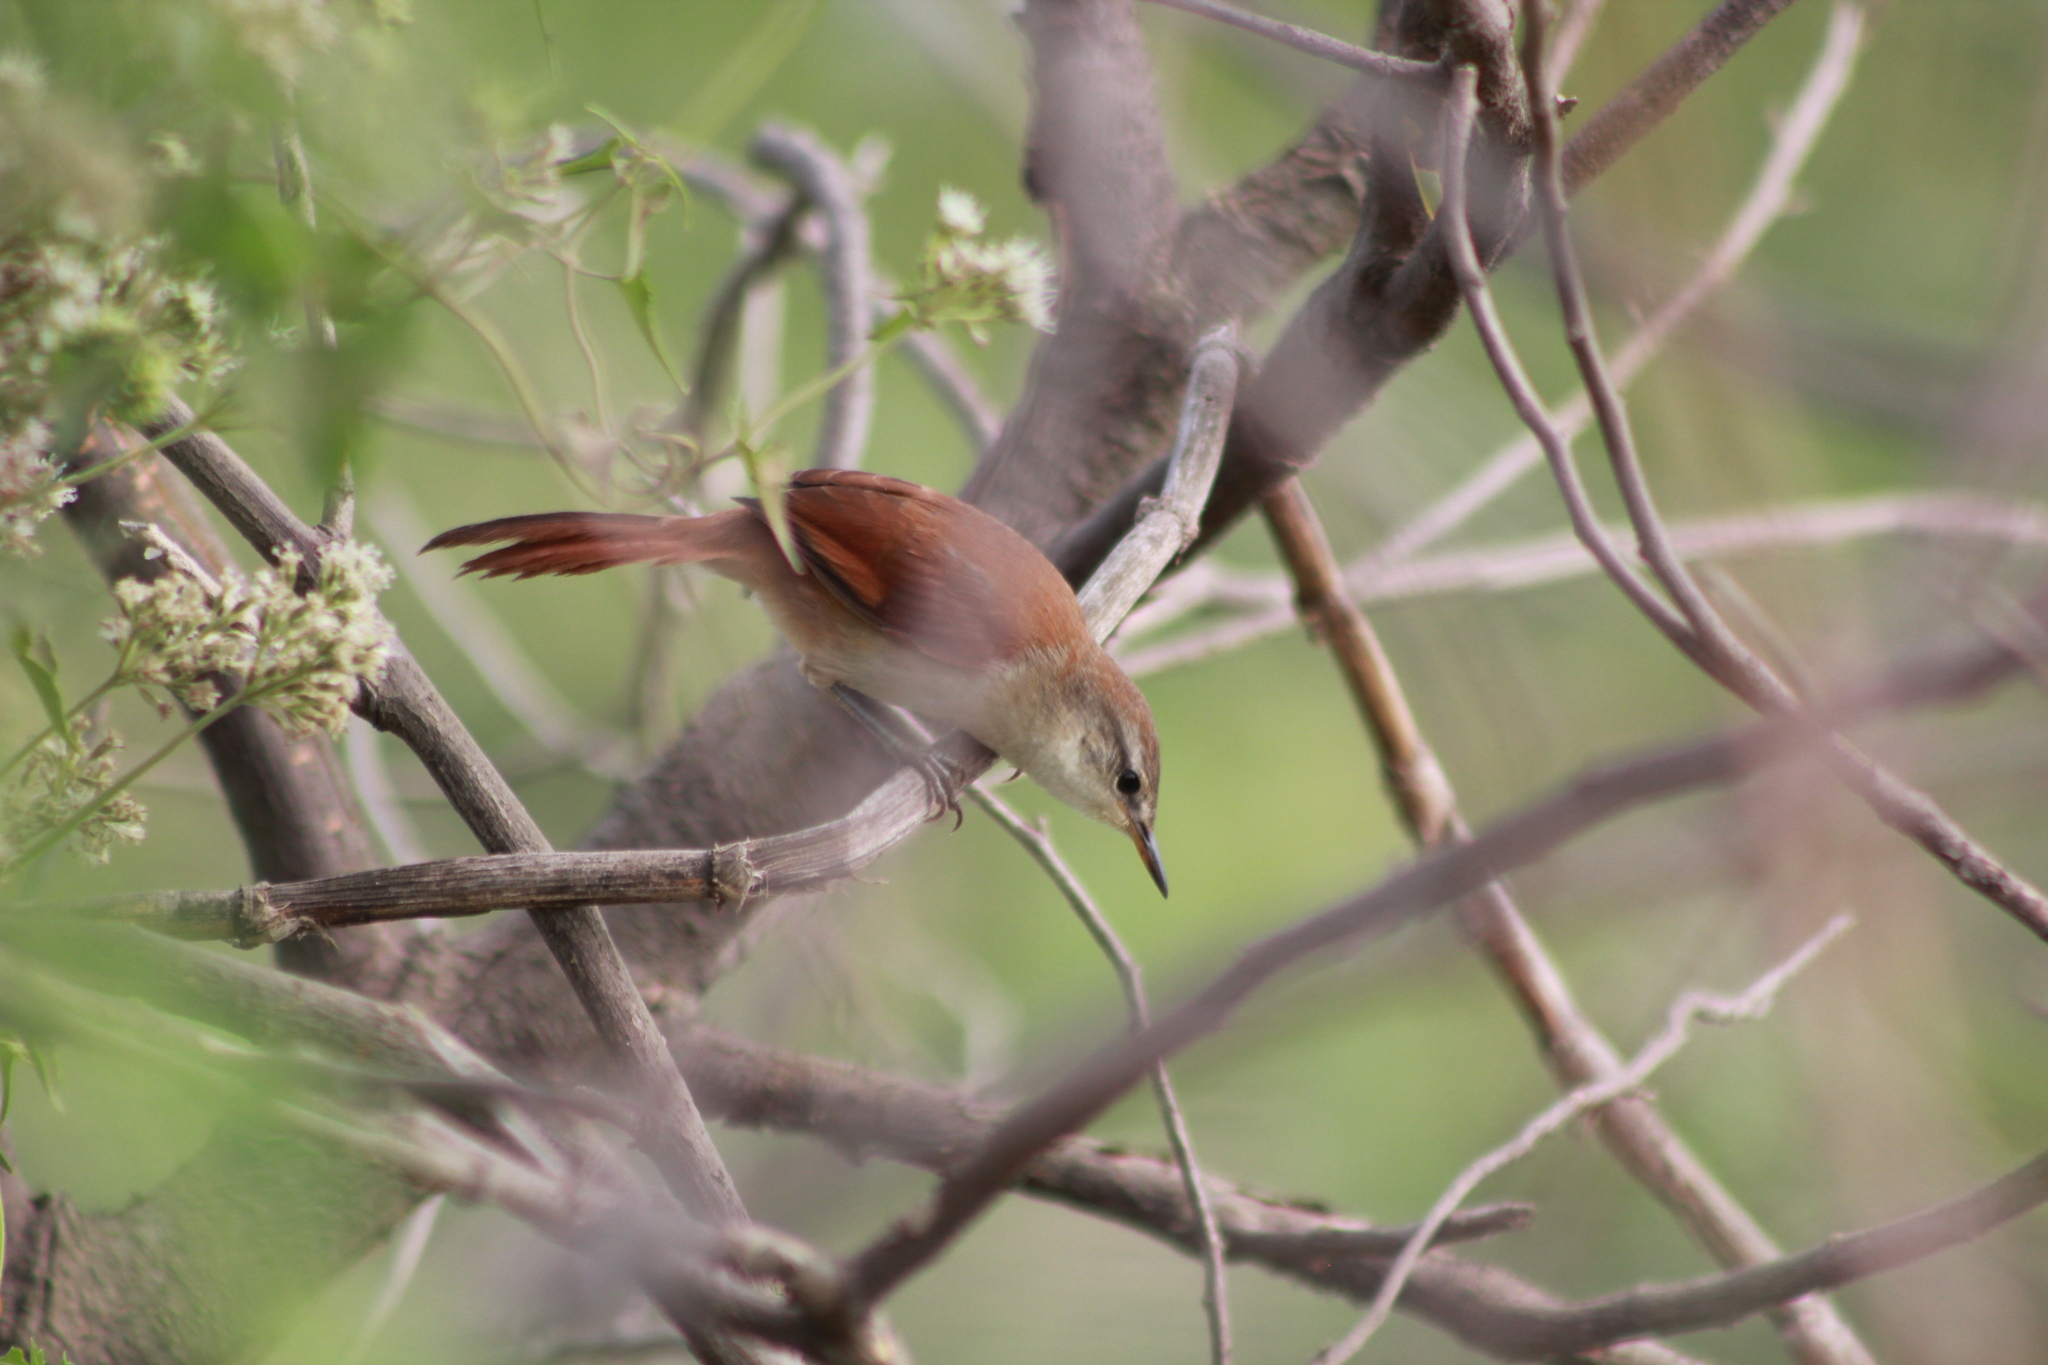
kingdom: Animalia
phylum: Chordata
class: Aves
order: Passeriformes
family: Furnariidae
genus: Certhiaxis
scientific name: Certhiaxis cinnamomeus
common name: Yellow-chinned spinetail
